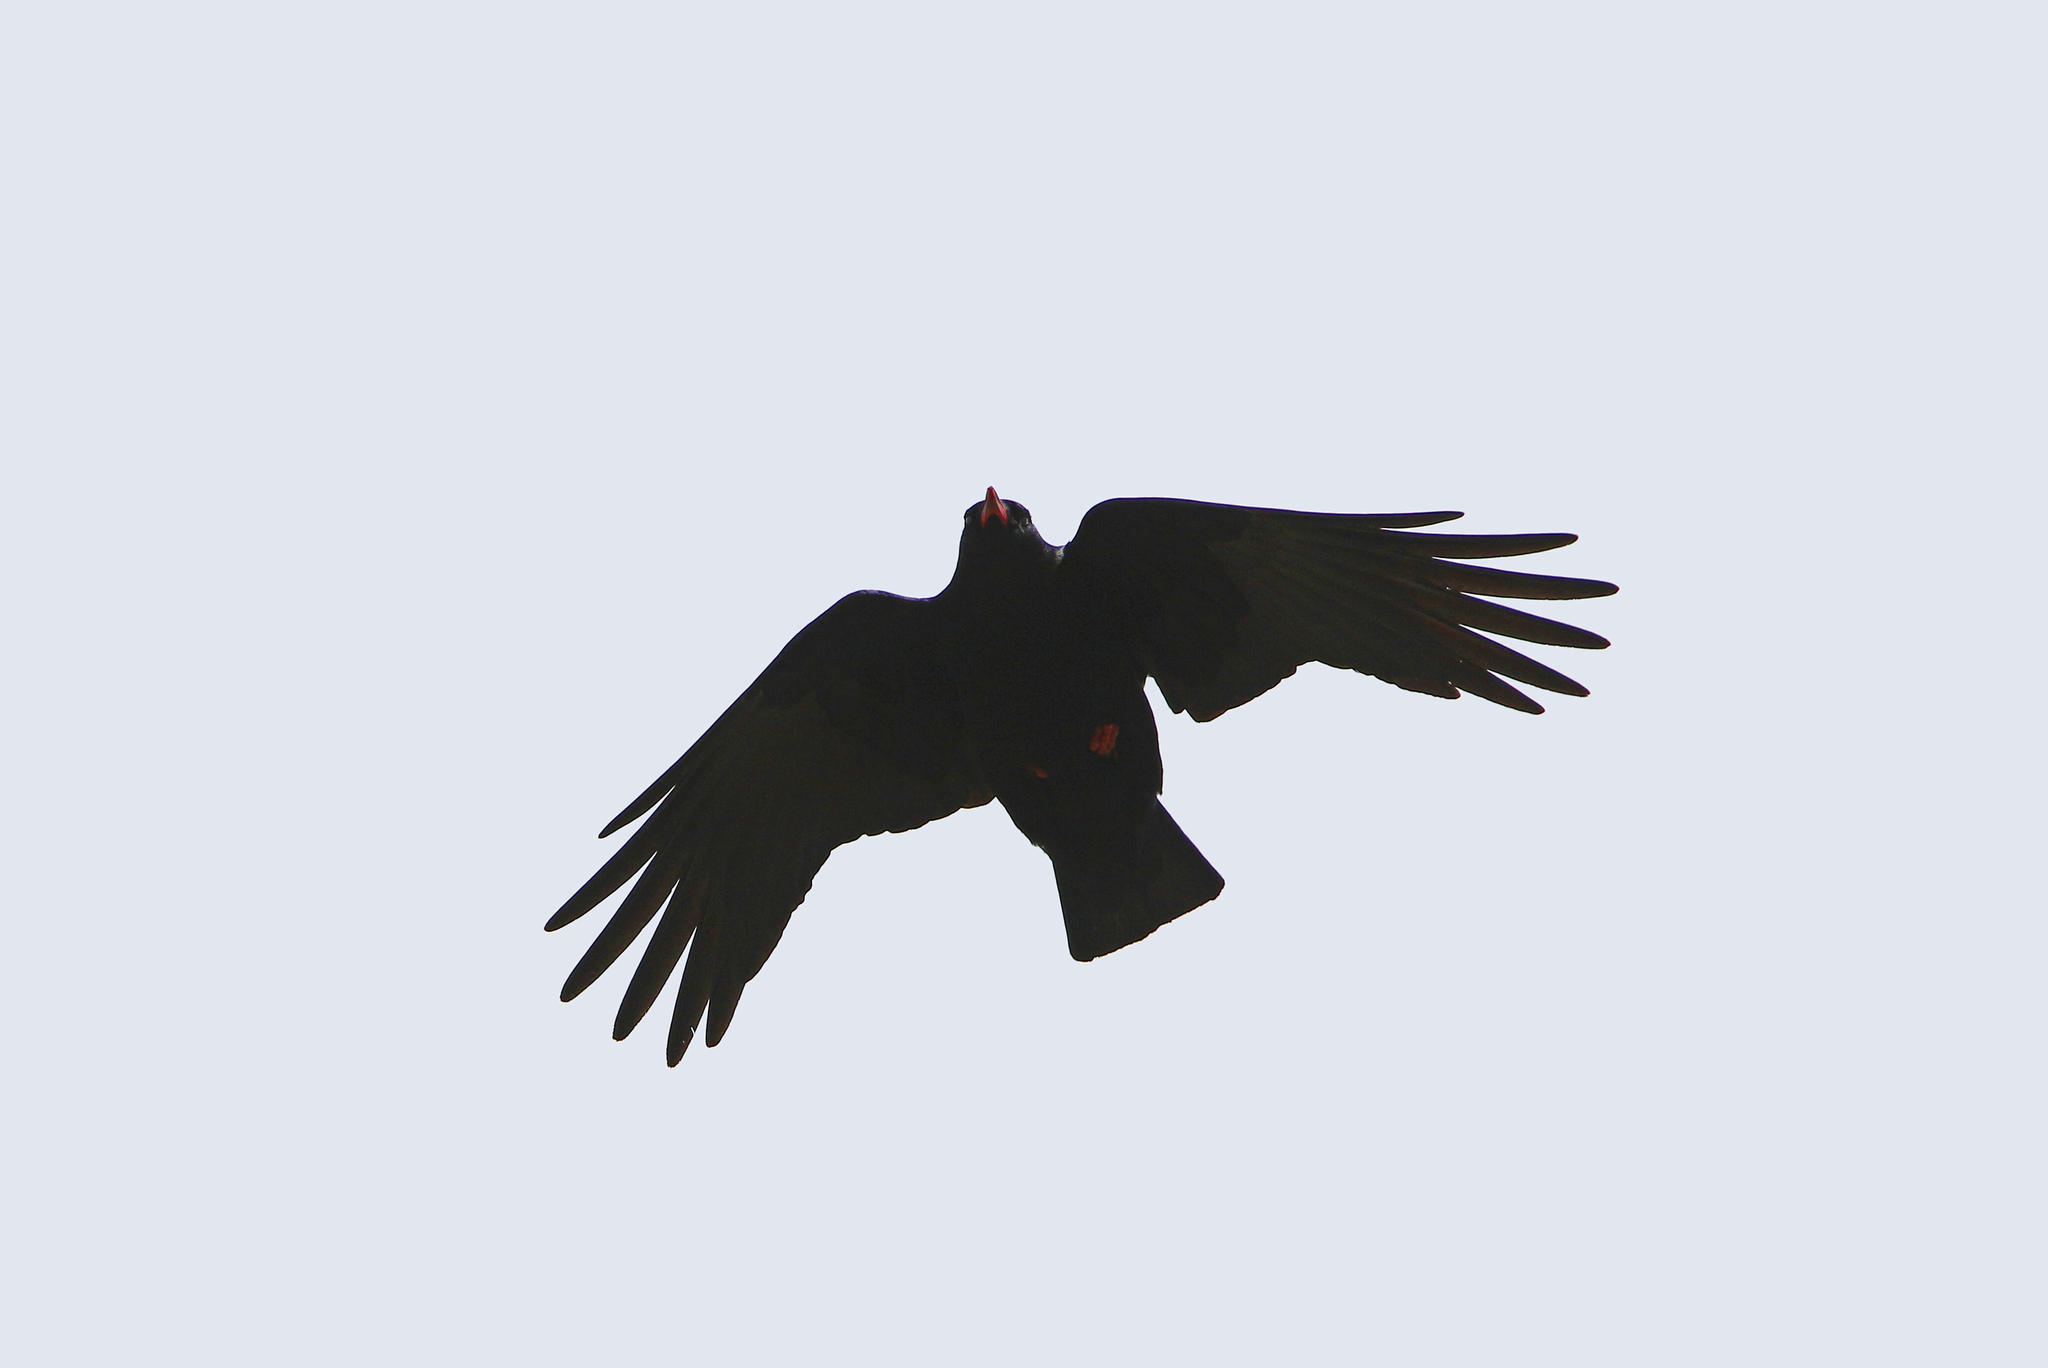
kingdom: Animalia
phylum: Chordata
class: Aves
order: Passeriformes
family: Corvidae
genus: Pyrrhocorax
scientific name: Pyrrhocorax pyrrhocorax
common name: Red-billed chough
